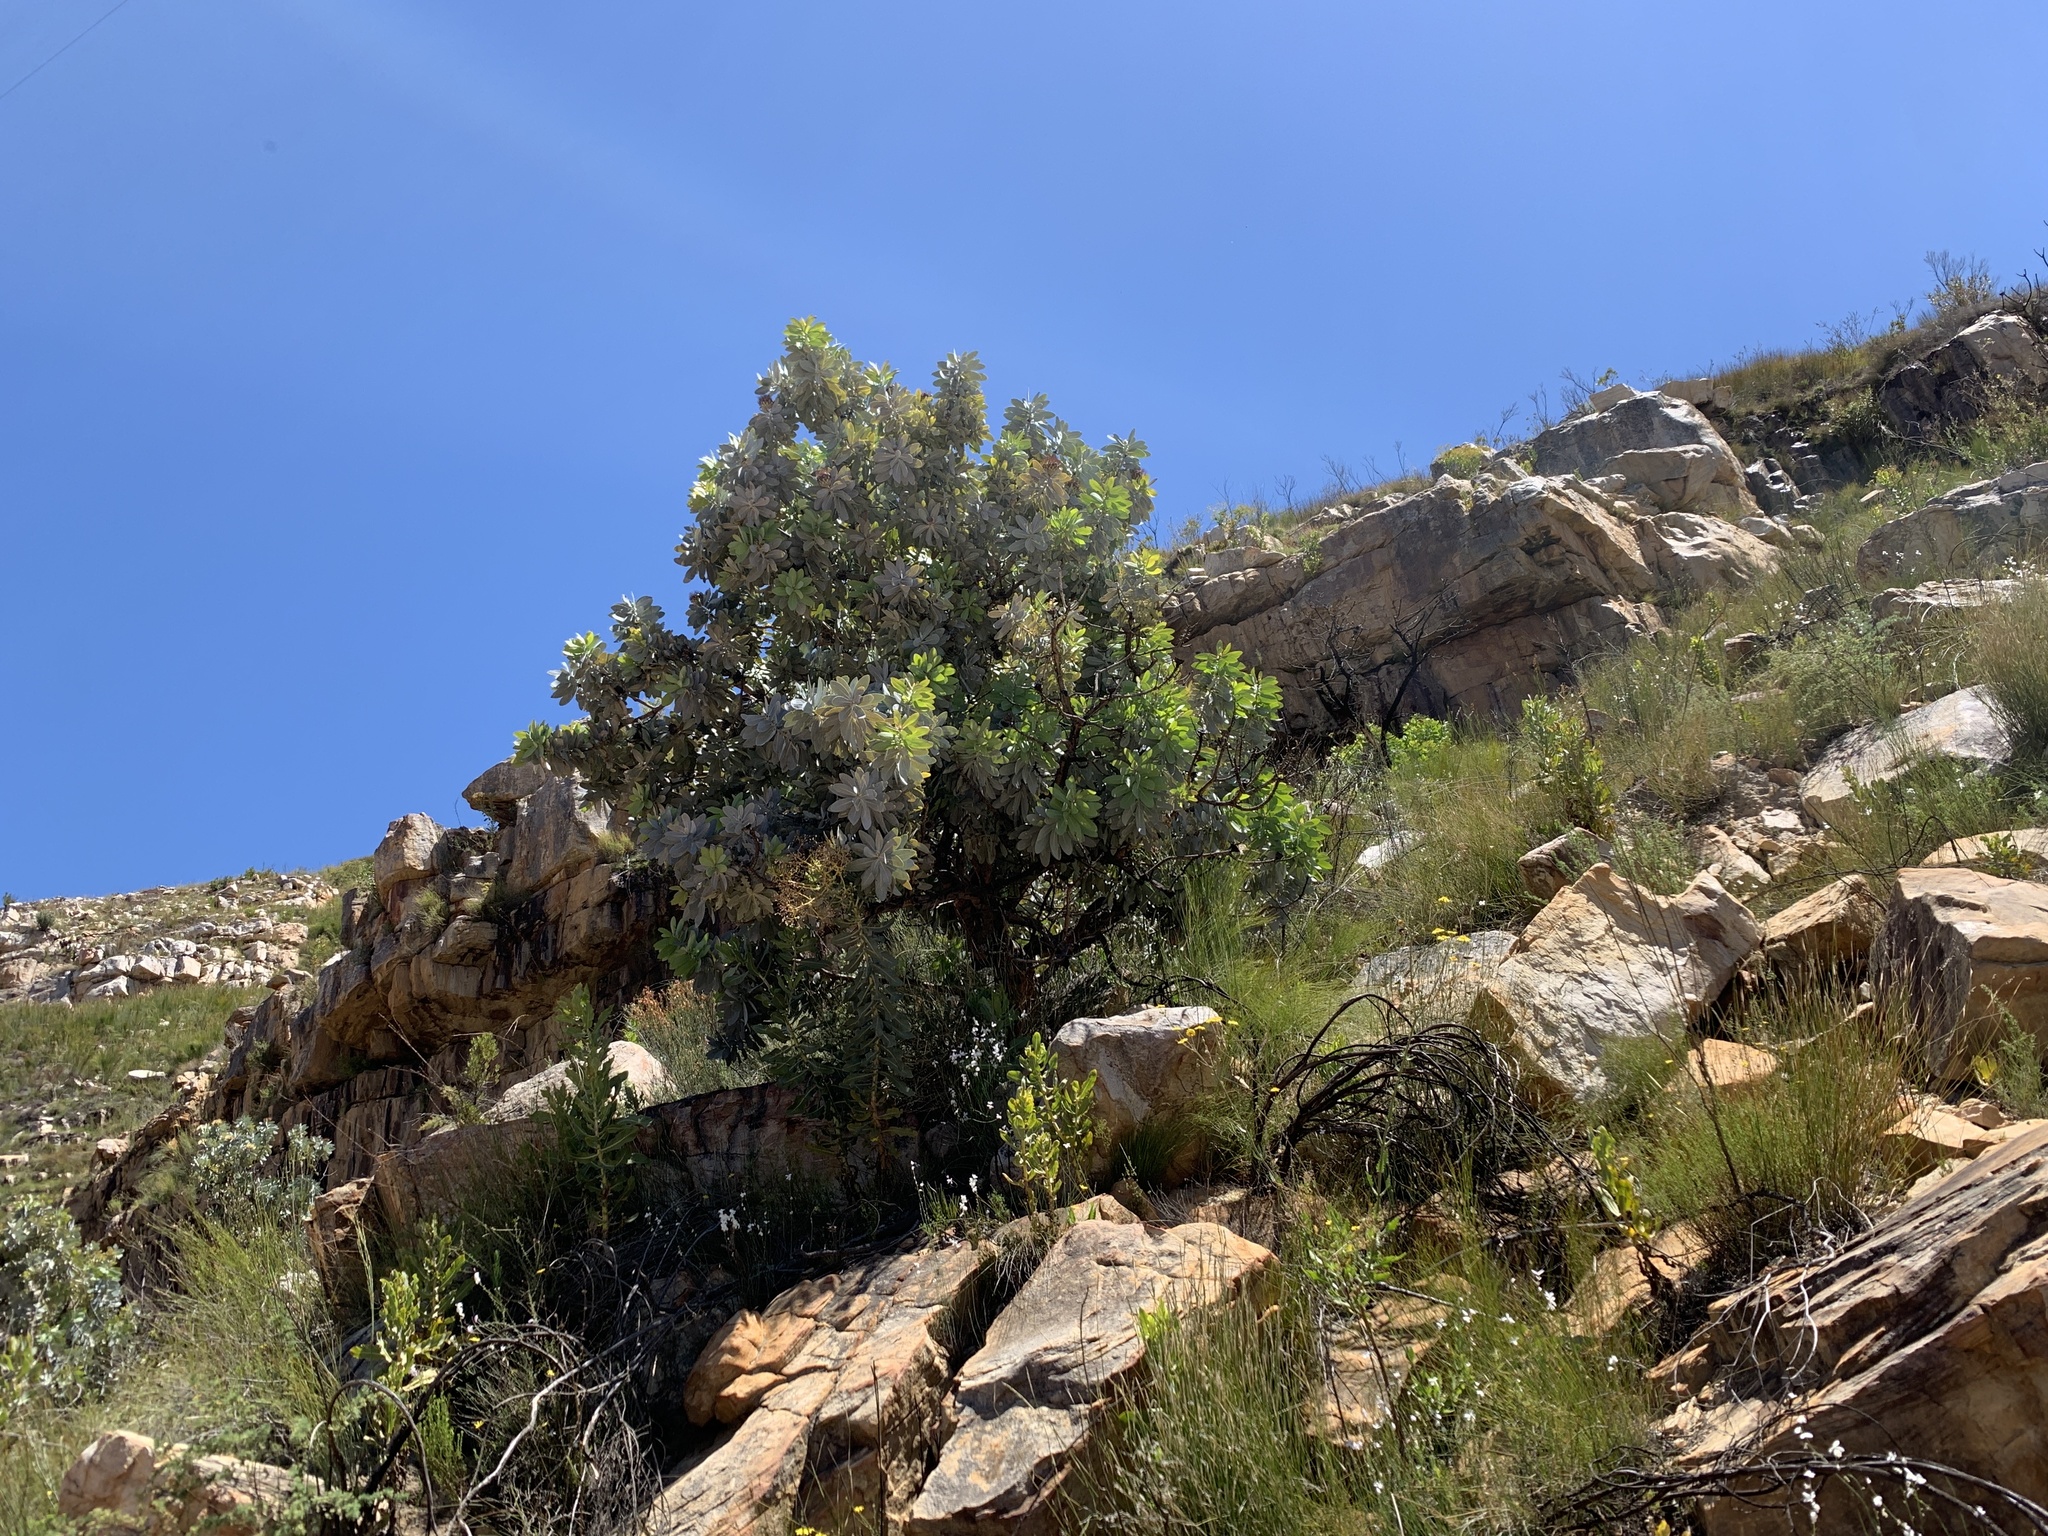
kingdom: Plantae
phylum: Tracheophyta
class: Magnoliopsida
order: Proteales
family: Proteaceae
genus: Protea
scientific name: Protea nitida
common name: Tree protea
